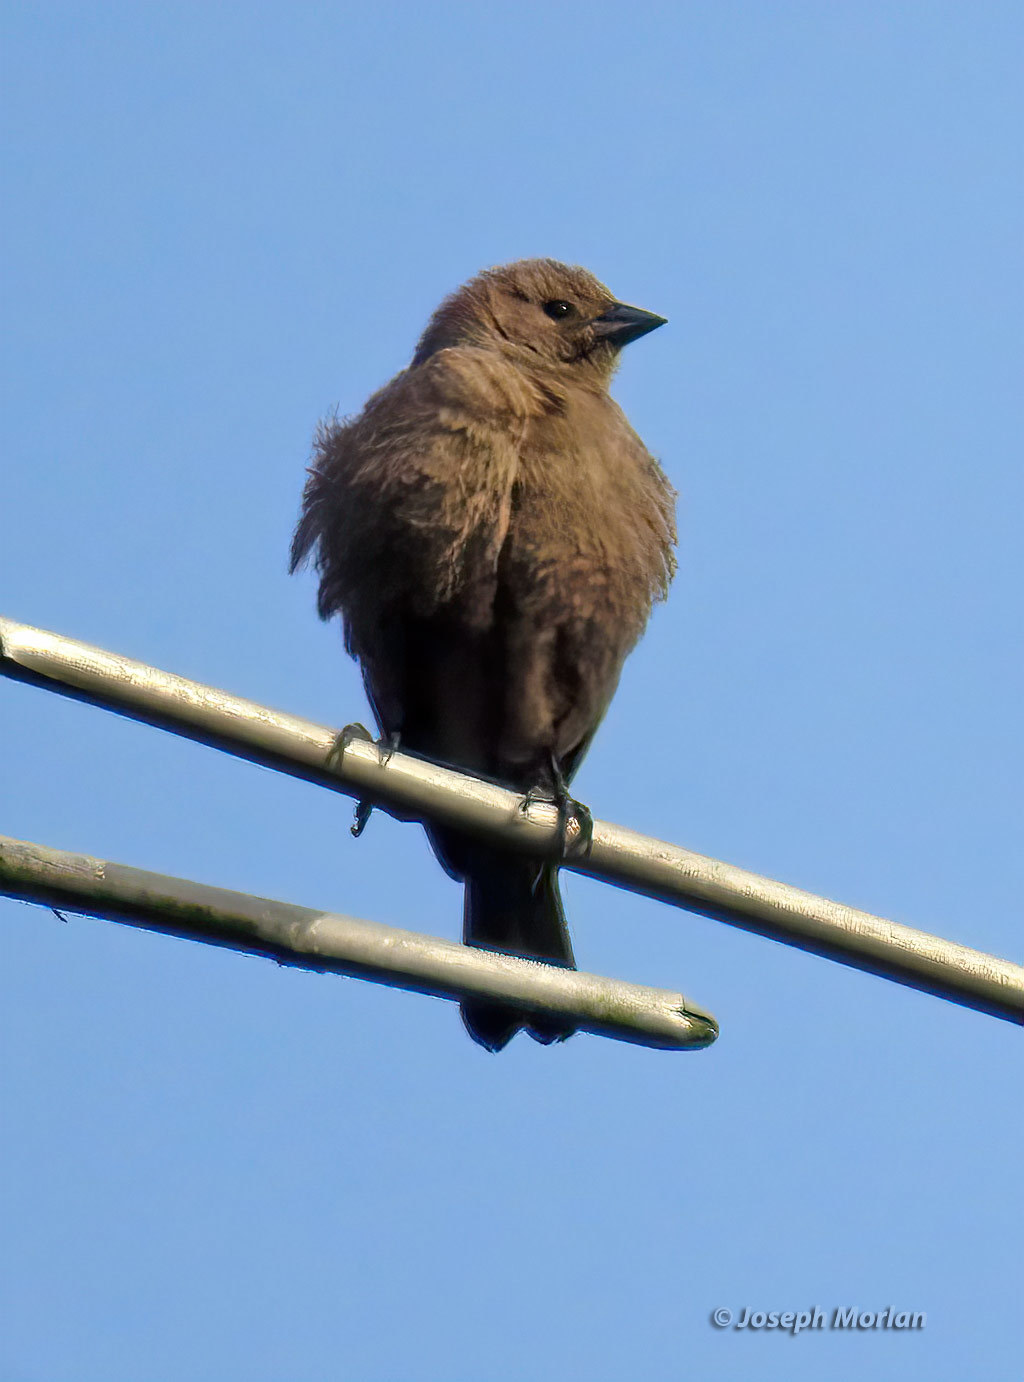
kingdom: Animalia
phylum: Chordata
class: Aves
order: Passeriformes
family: Icteridae
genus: Molothrus
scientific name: Molothrus ater
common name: Brown-headed cowbird
